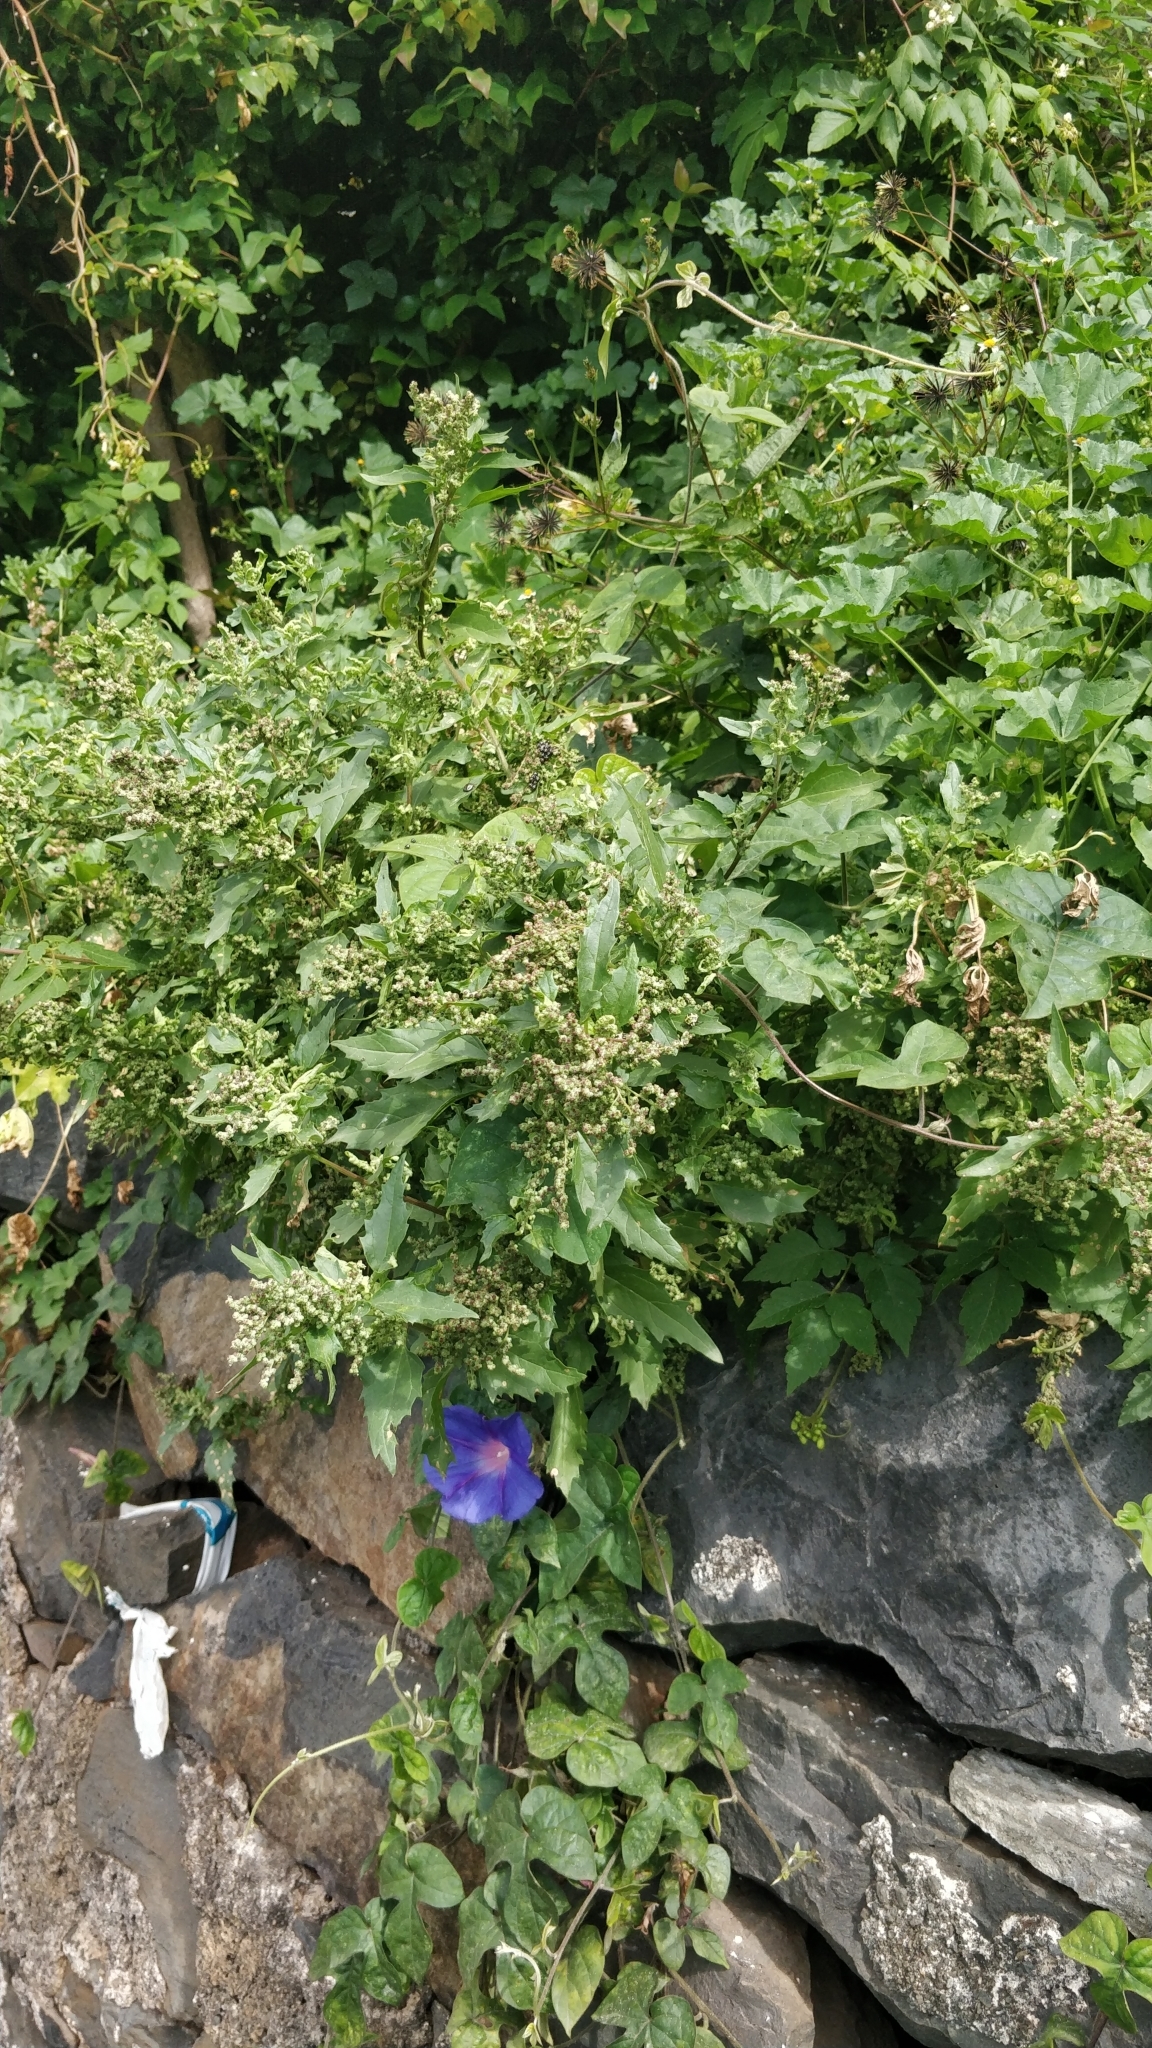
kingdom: Plantae
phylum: Tracheophyta
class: Magnoliopsida
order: Caryophyllales
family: Amaranthaceae
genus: Chenopodiastrum
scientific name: Chenopodiastrum murale
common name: Sowbane
